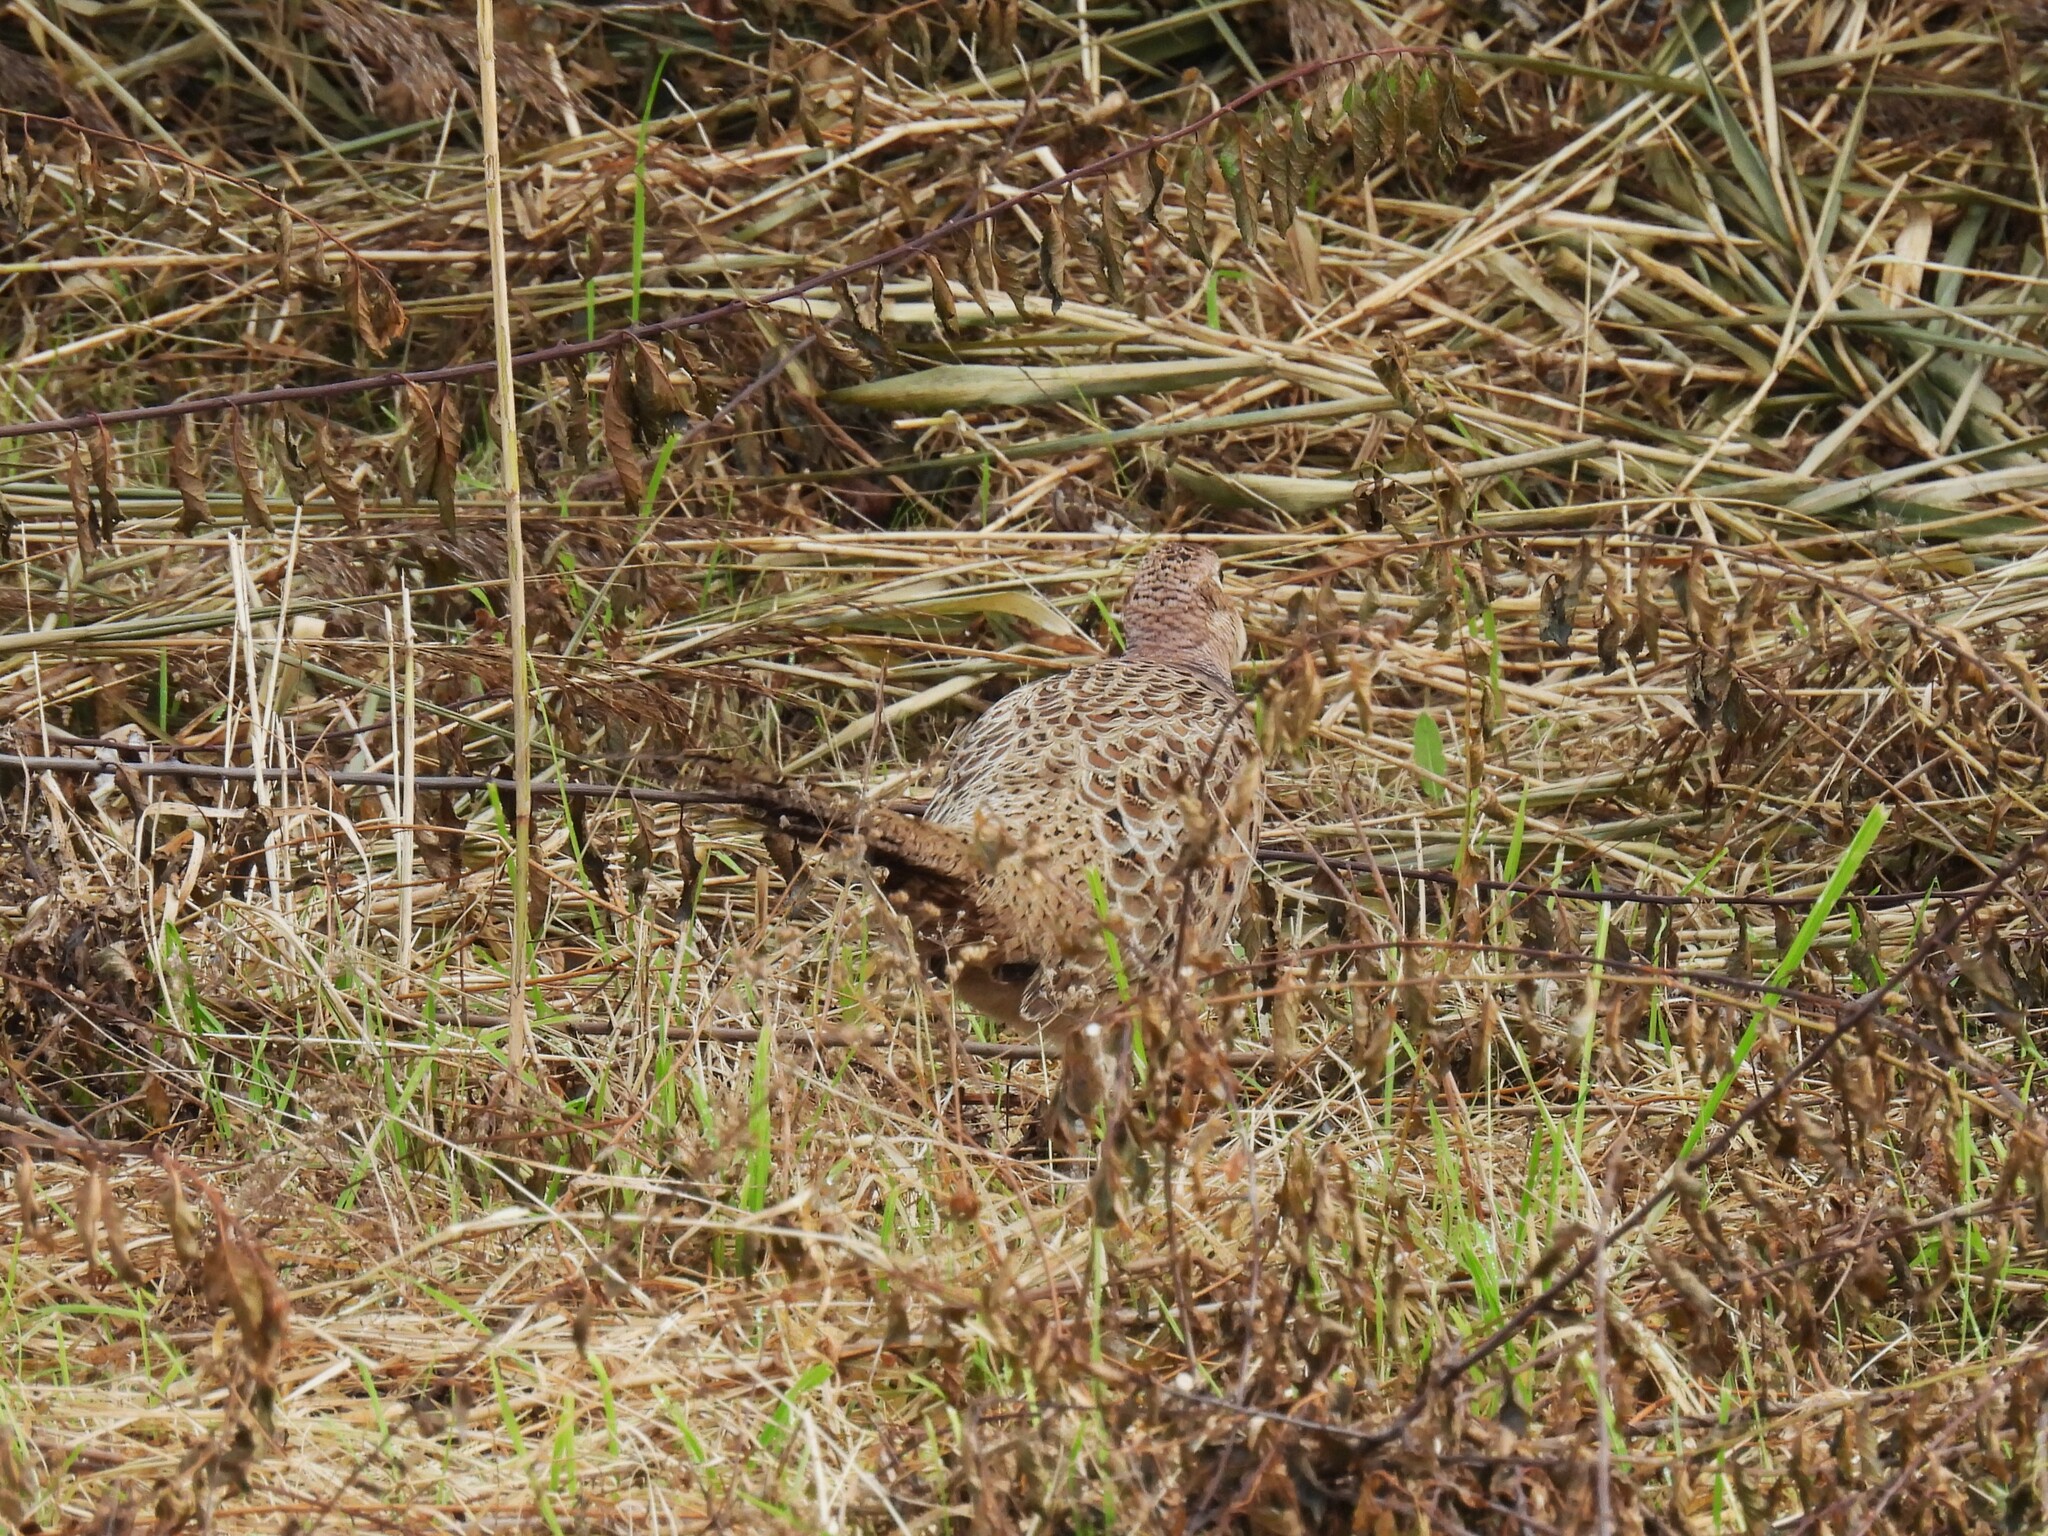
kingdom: Animalia
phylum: Chordata
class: Aves
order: Galliformes
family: Phasianidae
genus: Phasianus
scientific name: Phasianus colchicus
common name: Common pheasant
